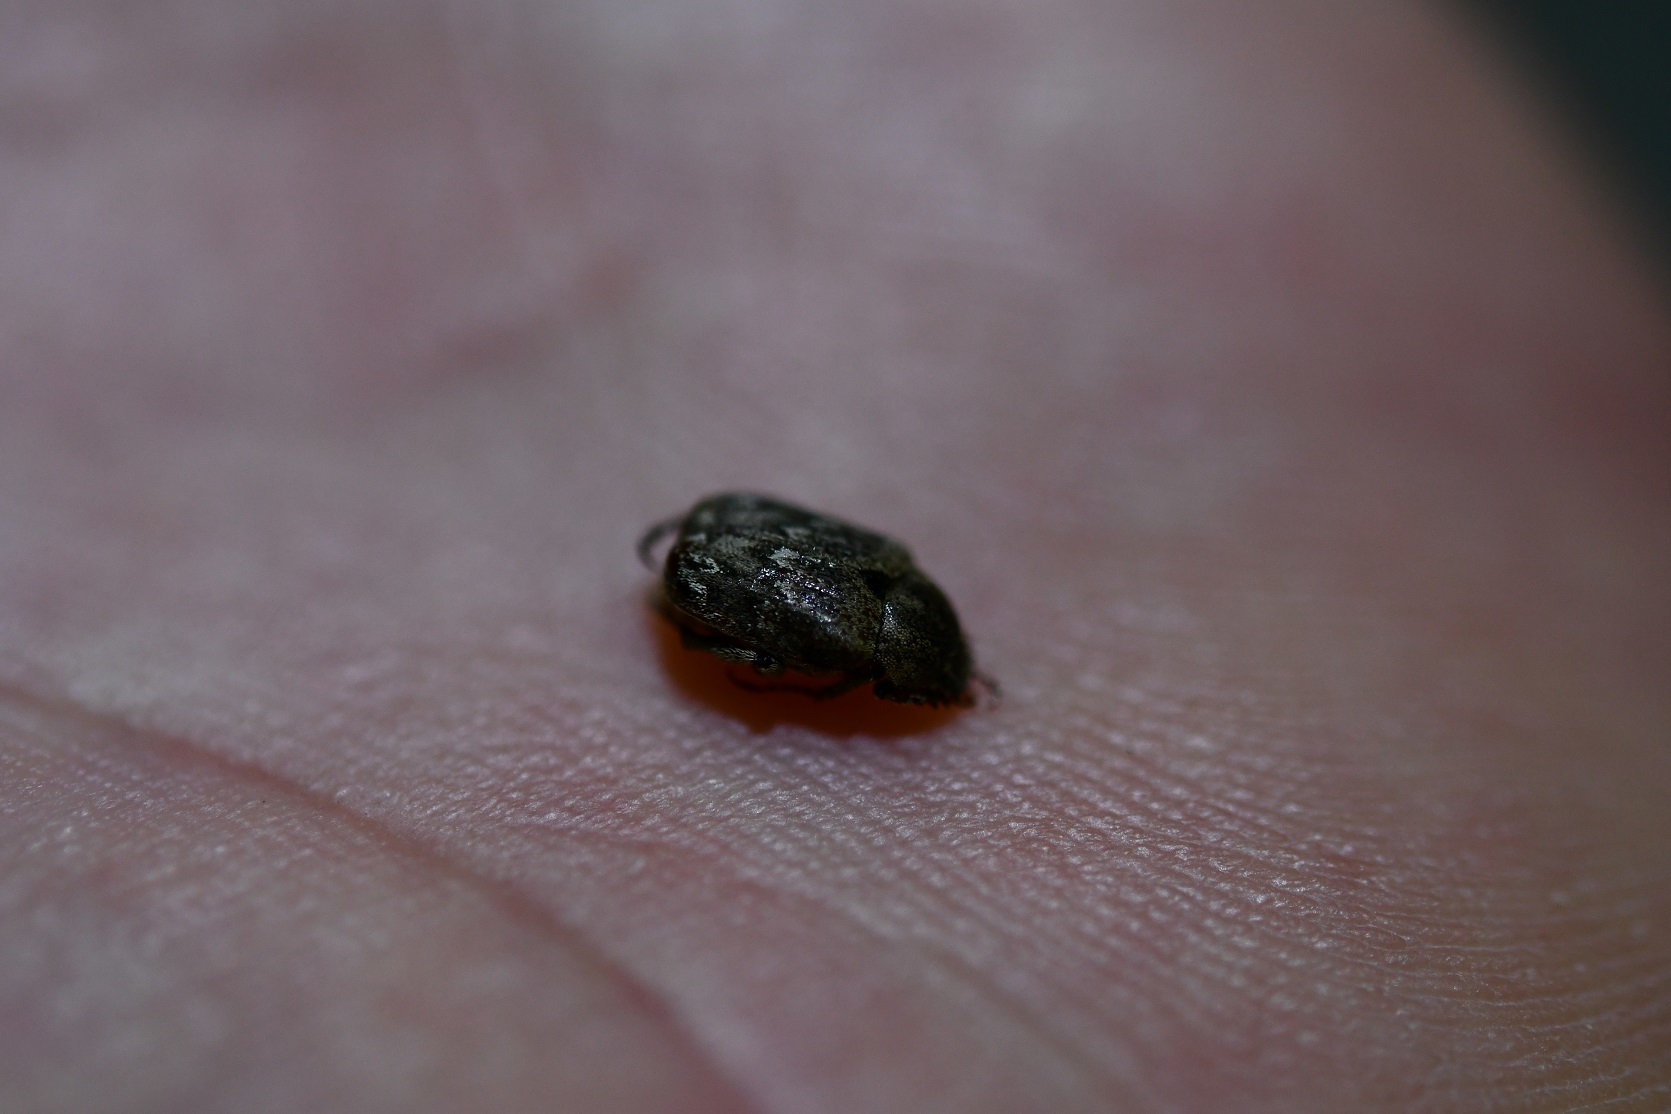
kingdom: Animalia
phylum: Arthropoda
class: Insecta
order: Coleoptera
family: Scarabaeidae
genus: Hoplia
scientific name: Hoplia squamifera
